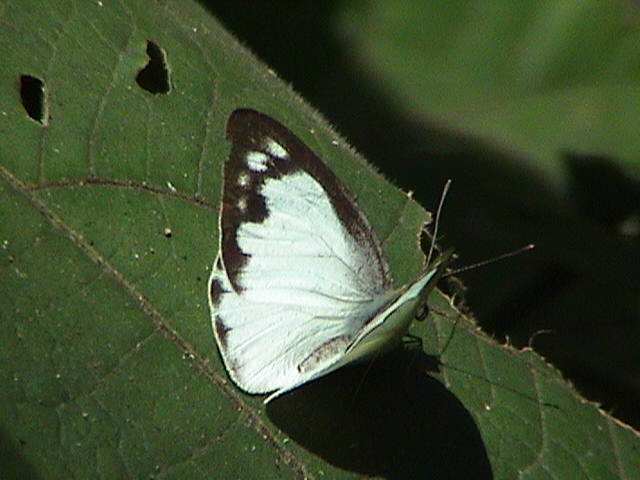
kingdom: Animalia
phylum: Arthropoda
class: Insecta
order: Lepidoptera
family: Pieridae
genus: Appias
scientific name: Appias albina
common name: Common albatross
